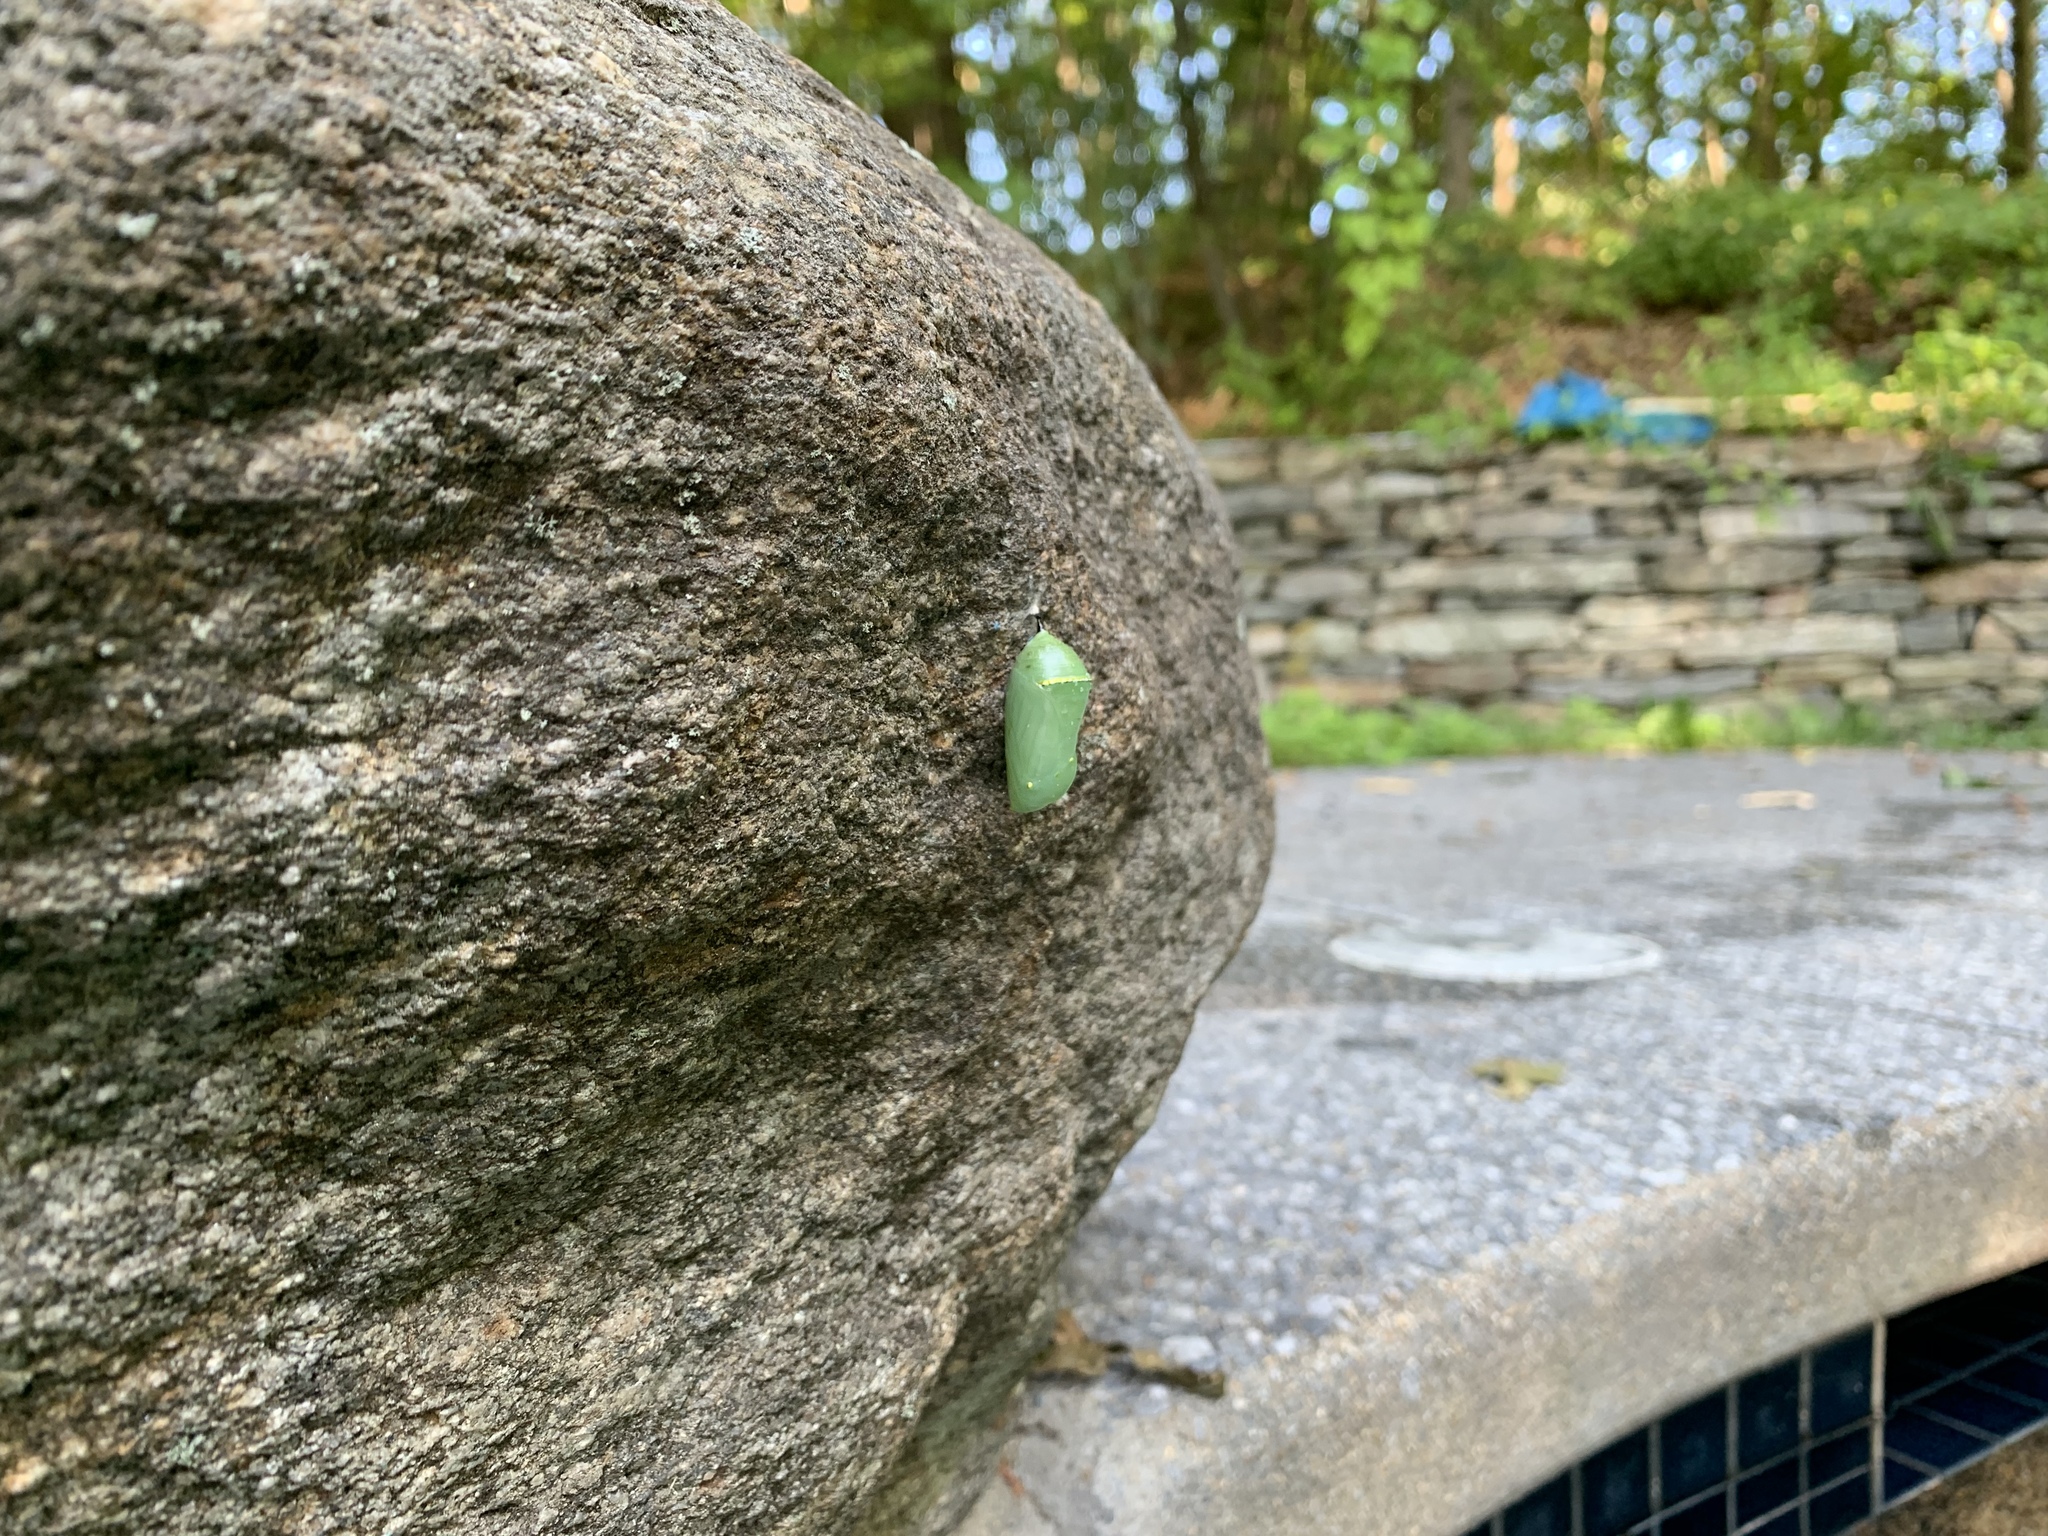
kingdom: Animalia
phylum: Arthropoda
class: Insecta
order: Lepidoptera
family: Nymphalidae
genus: Danaus
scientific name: Danaus plexippus
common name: Monarch
